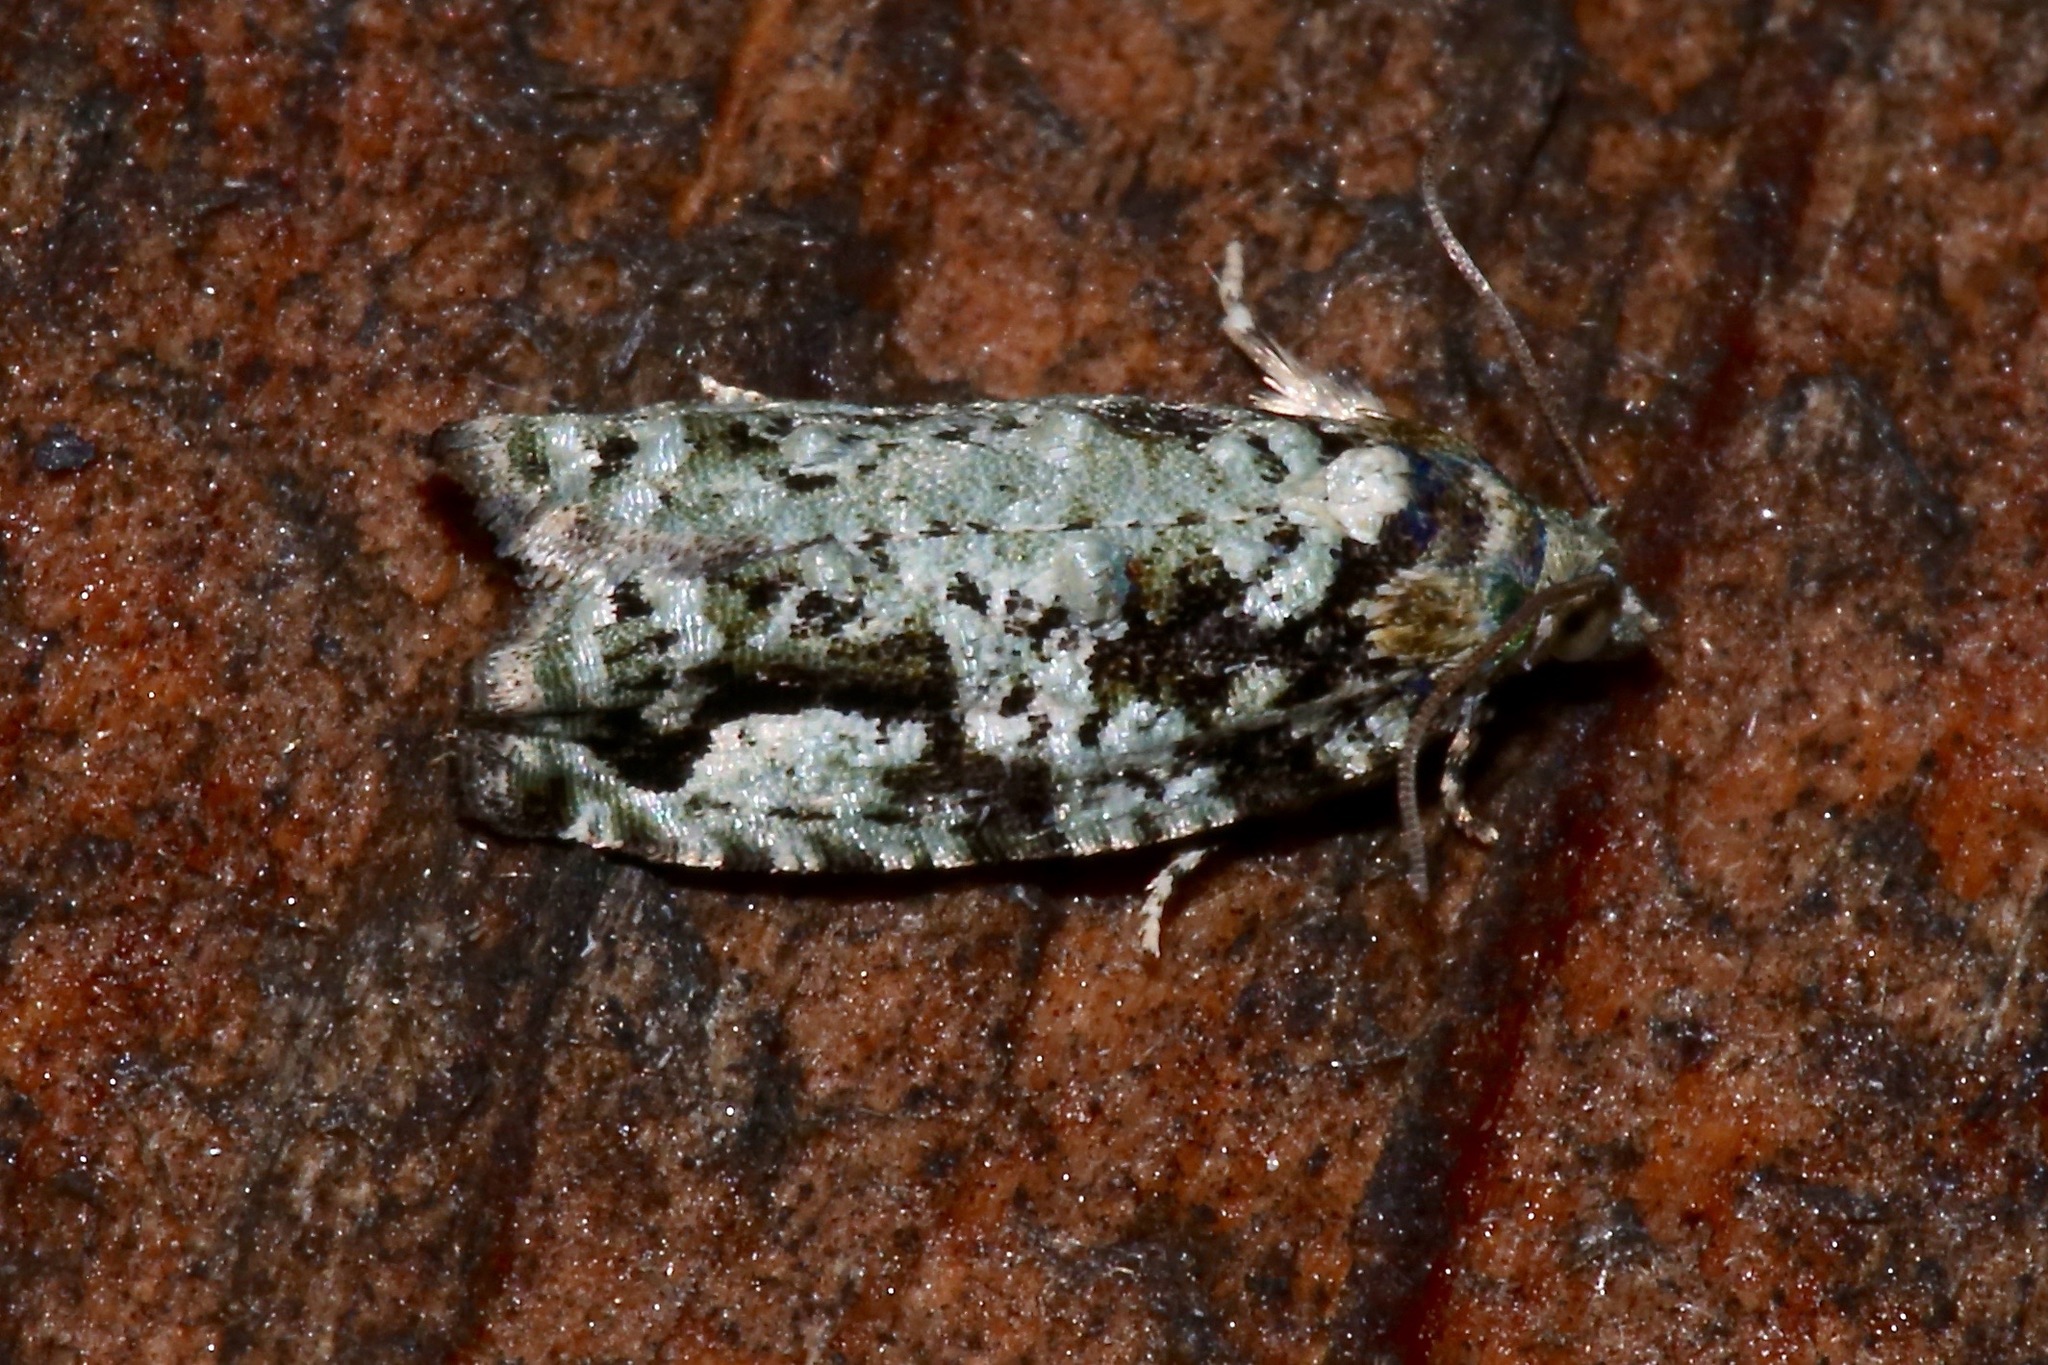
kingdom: Animalia
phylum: Arthropoda
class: Insecta
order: Lepidoptera
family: Tortricidae
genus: Proteoteras
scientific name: Proteoteras moffatiana
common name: Maple bud borer moth
